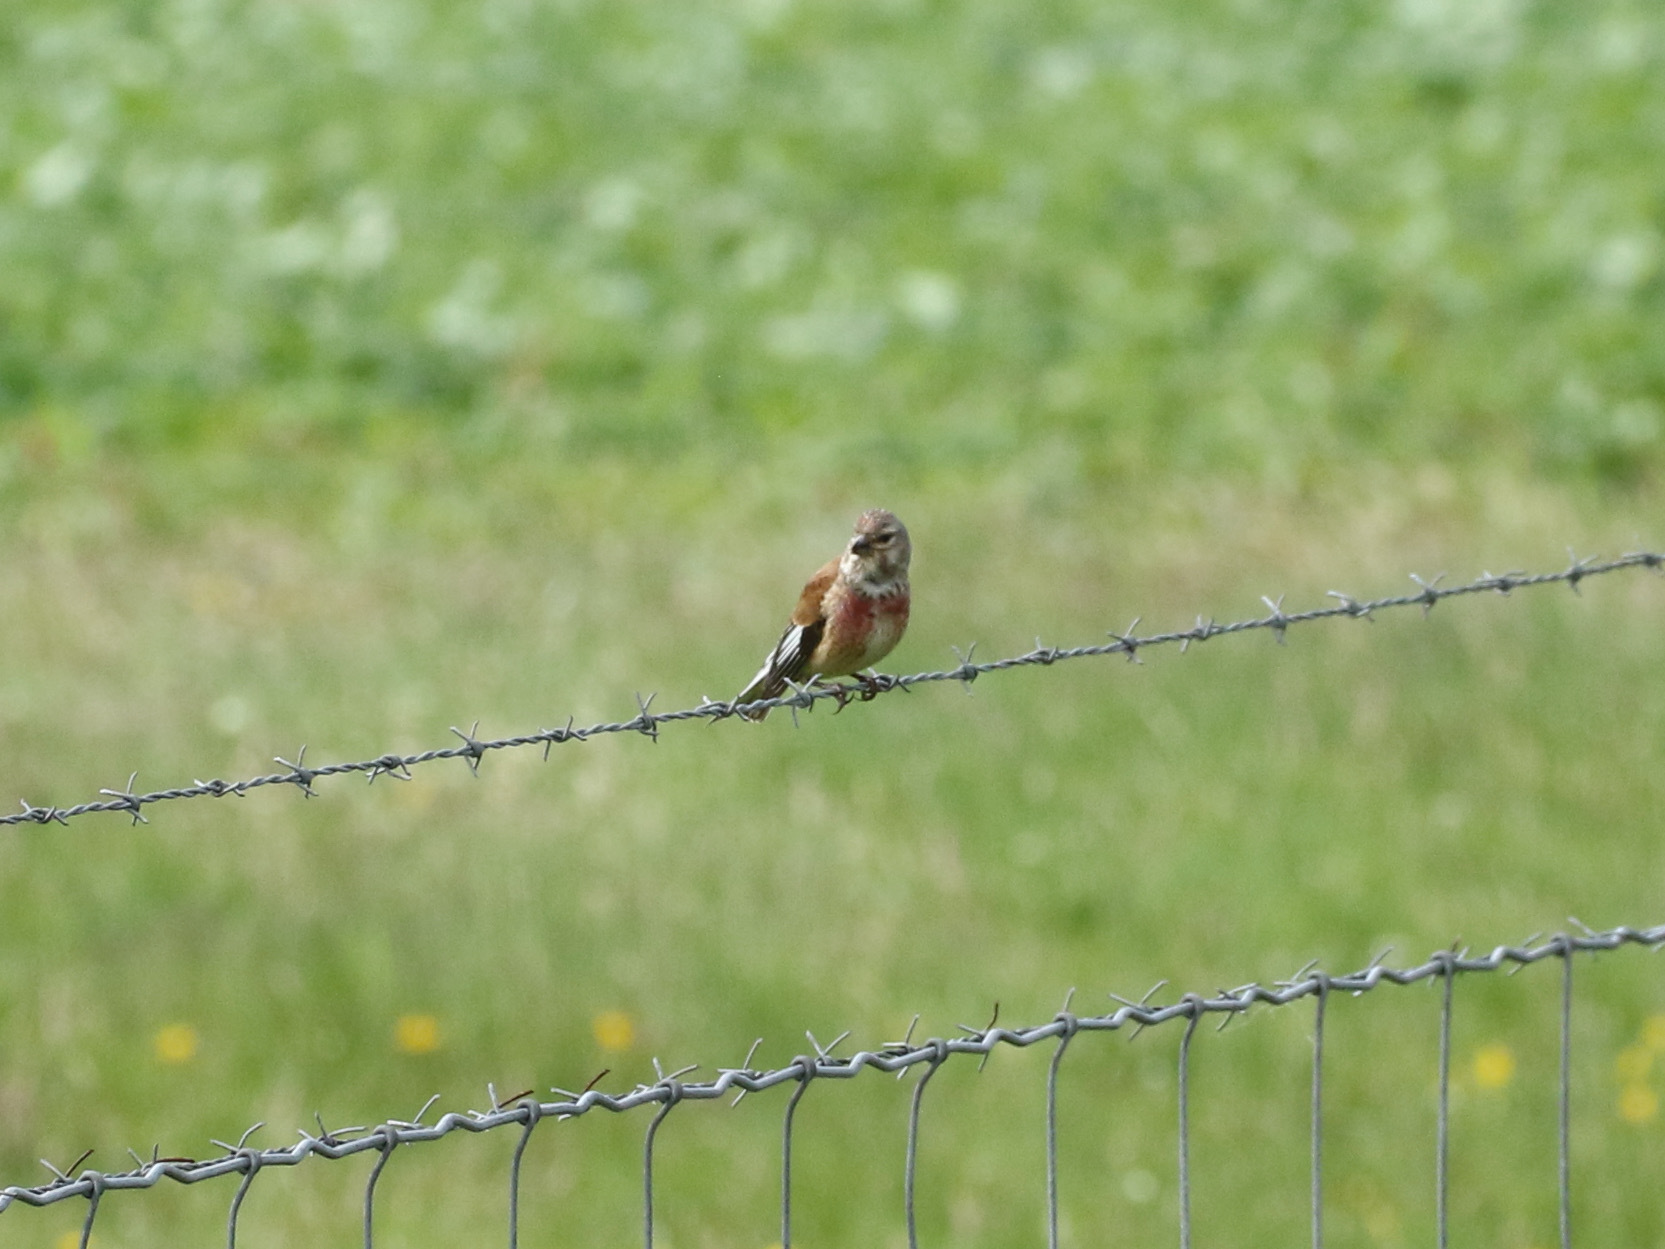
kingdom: Animalia
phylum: Chordata
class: Aves
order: Passeriformes
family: Fringillidae
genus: Linaria
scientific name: Linaria cannabina
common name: Common linnet
